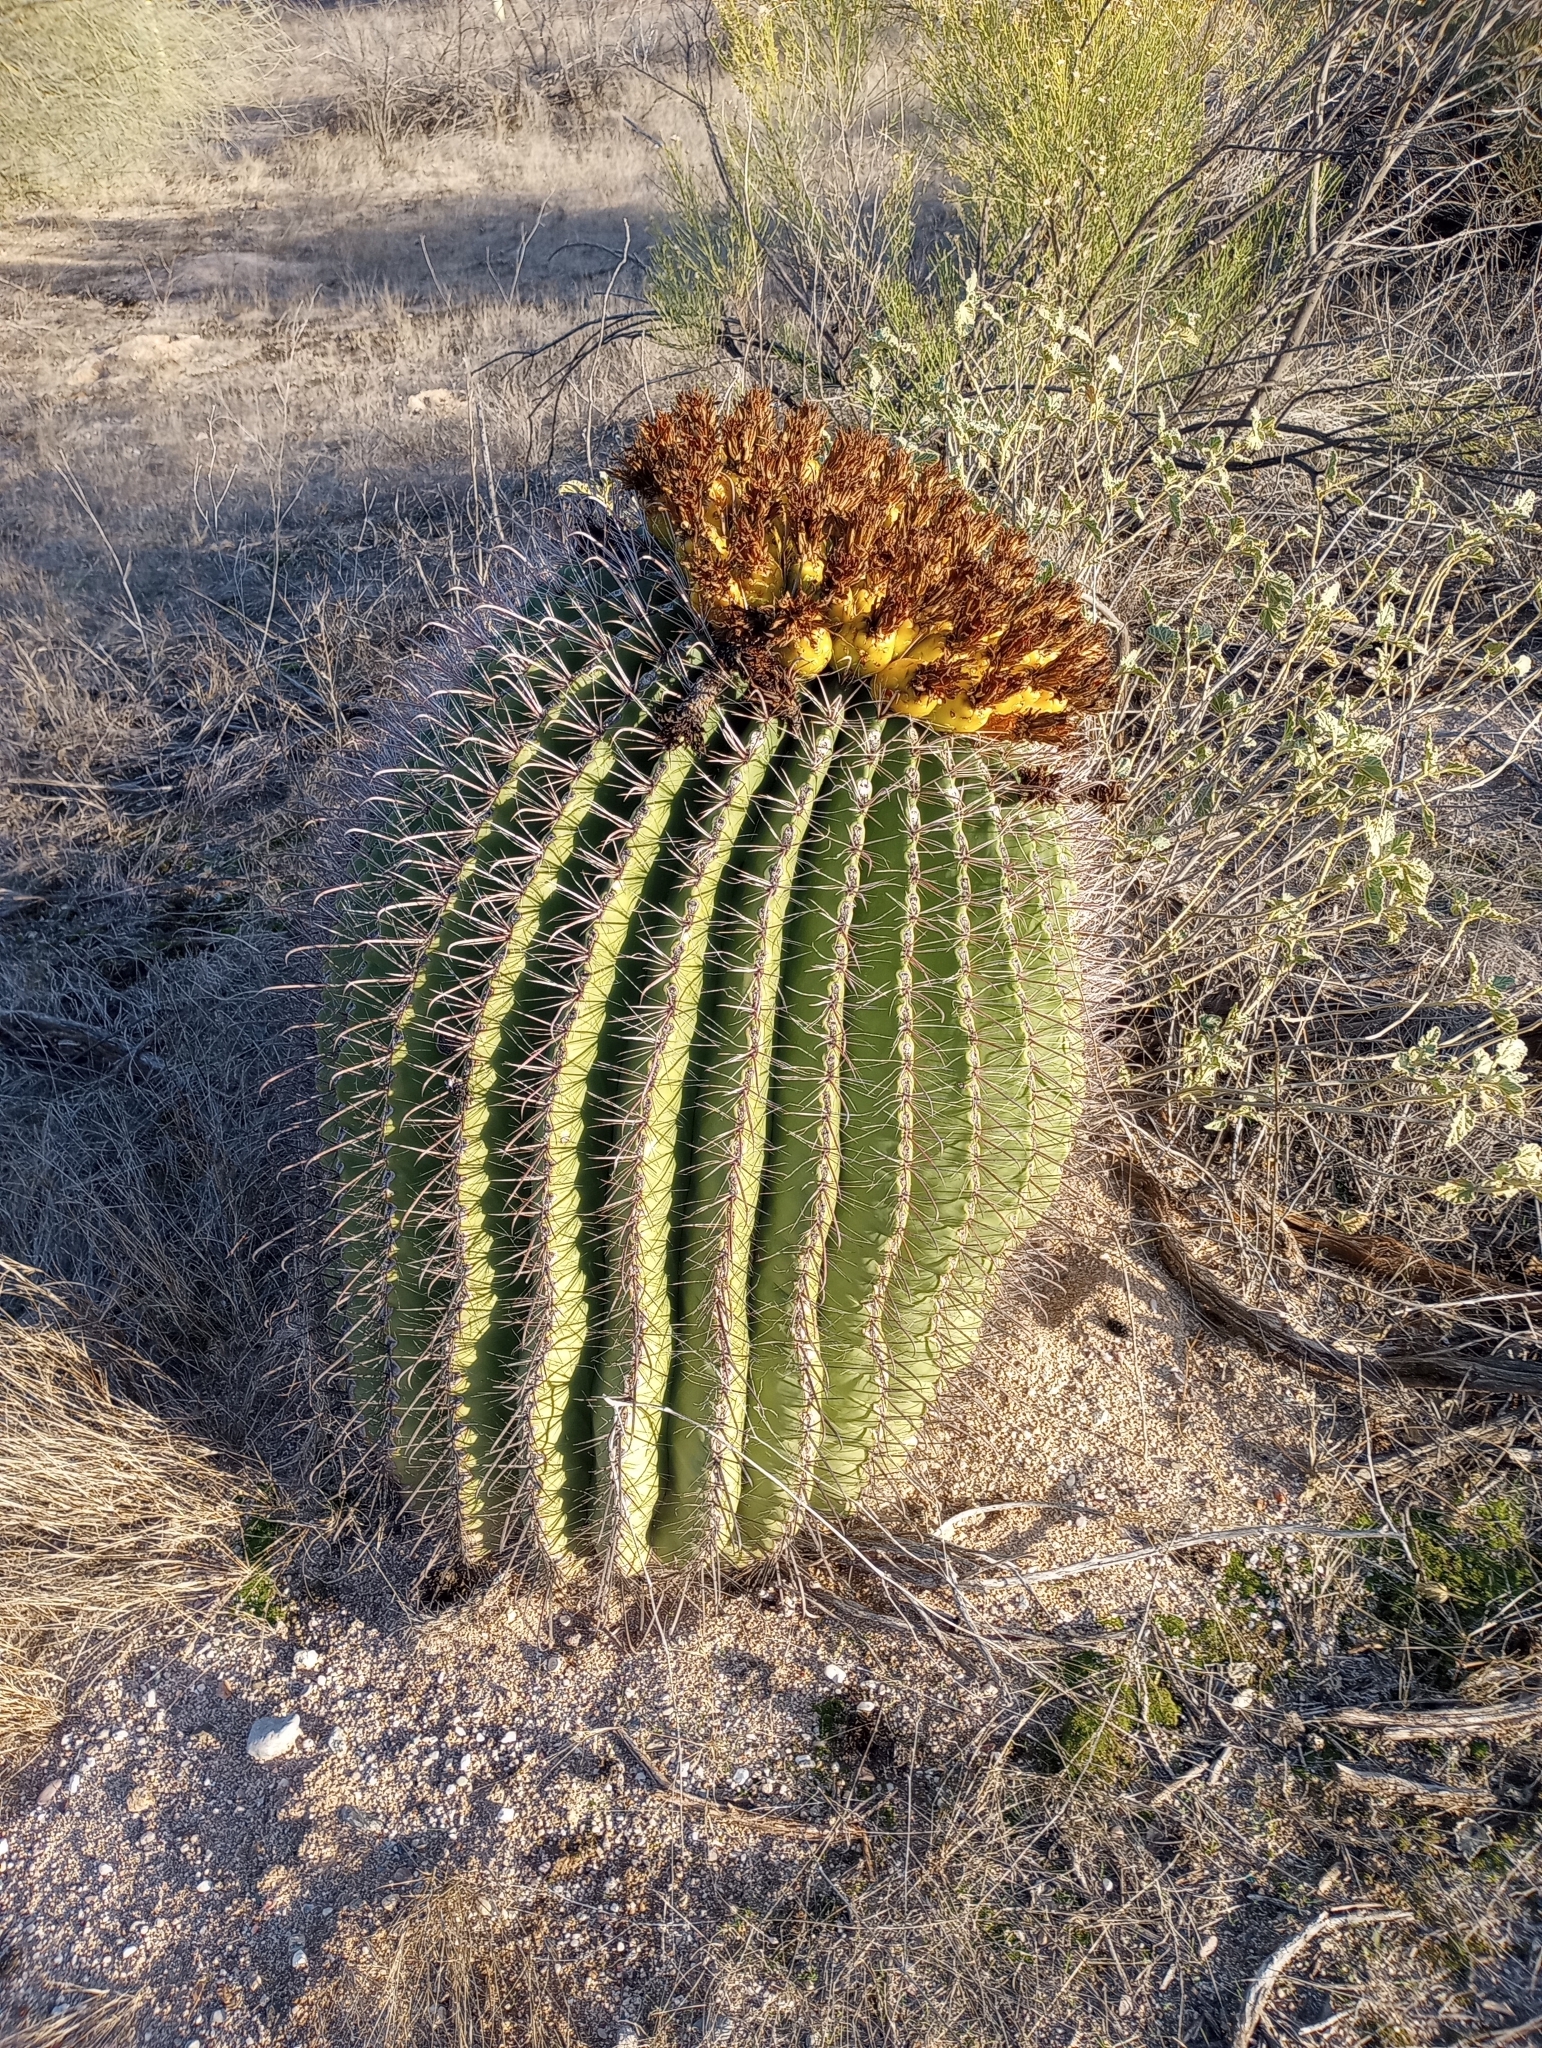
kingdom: Plantae
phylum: Tracheophyta
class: Magnoliopsida
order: Caryophyllales
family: Cactaceae
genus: Ferocactus
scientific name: Ferocactus wislizeni
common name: Candy barrel cactus
